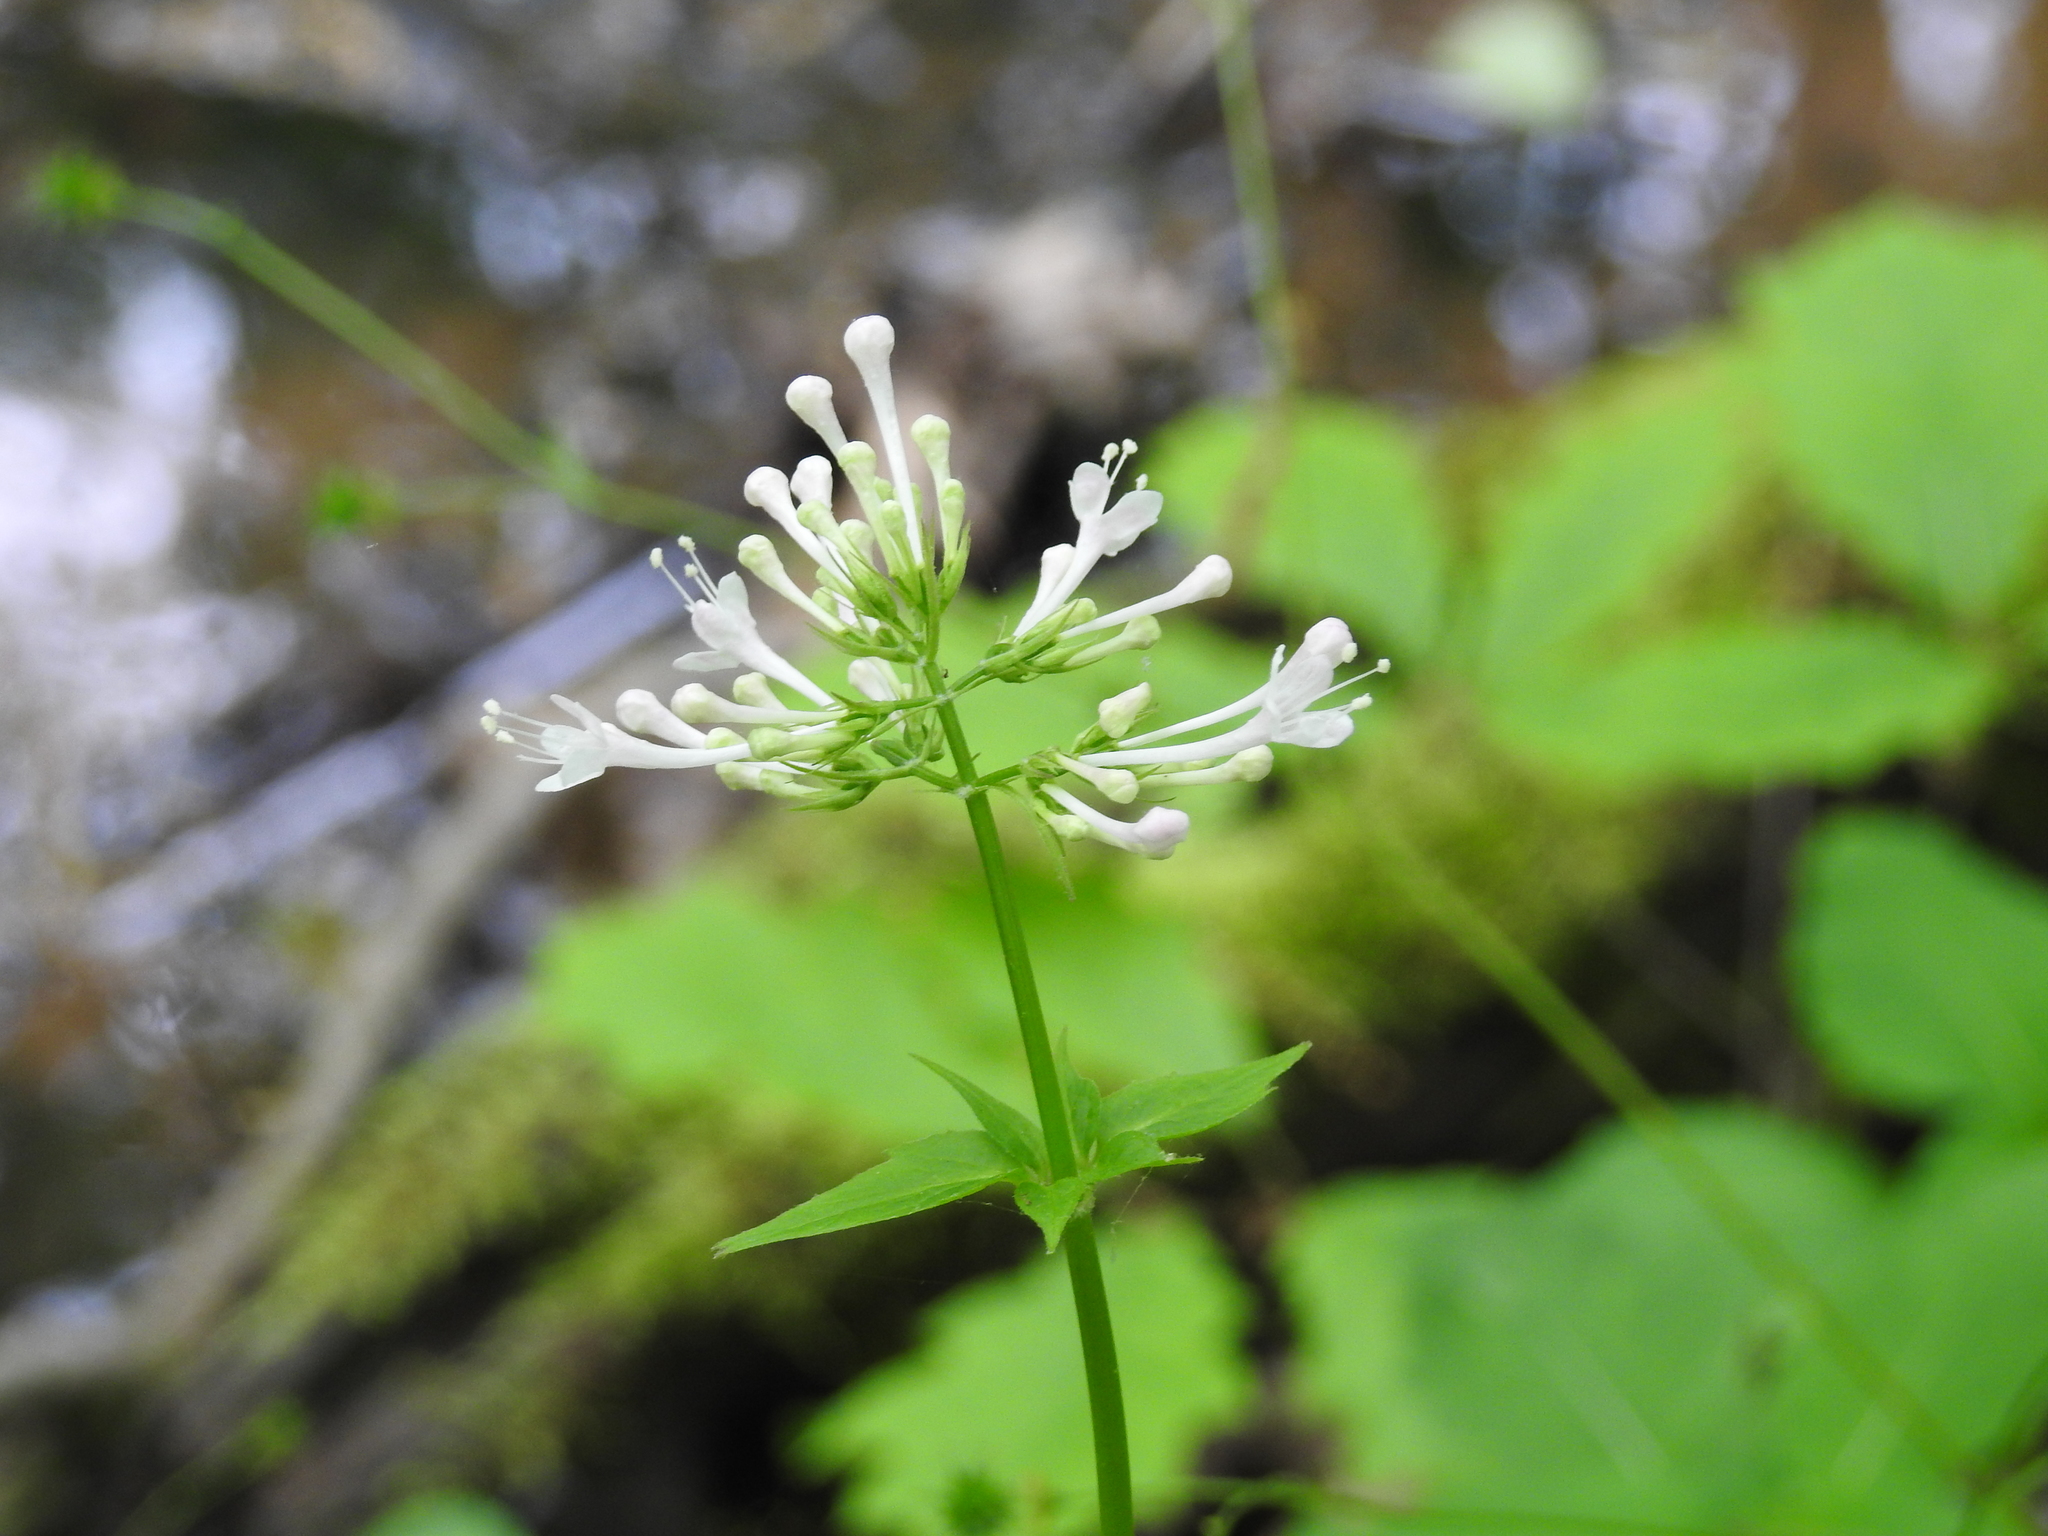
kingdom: Plantae
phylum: Tracheophyta
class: Magnoliopsida
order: Dipsacales
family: Caprifoliaceae
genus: Valeriana
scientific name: Valeriana pauciflora
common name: Long-tube valeriana
